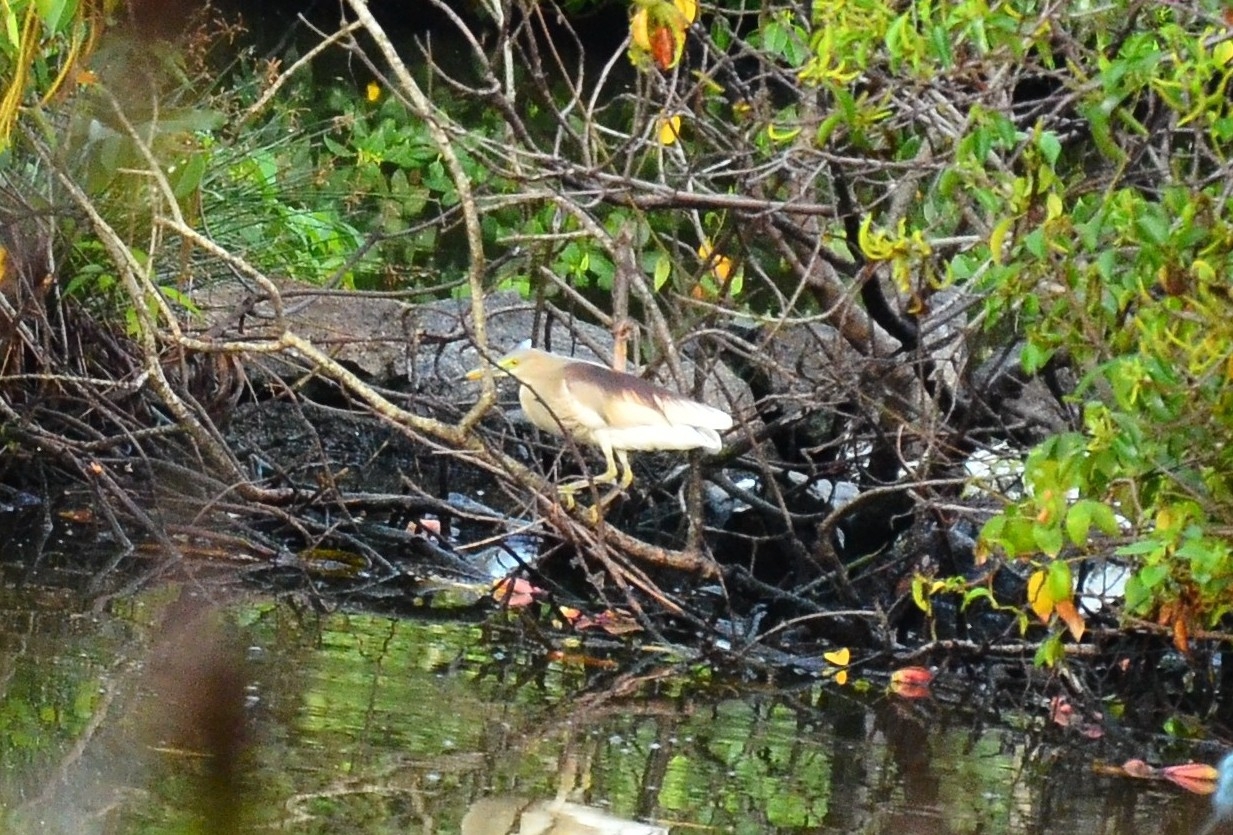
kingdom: Animalia
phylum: Chordata
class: Aves
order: Pelecaniformes
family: Ardeidae
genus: Ardeola
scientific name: Ardeola grayii
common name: Indian pond heron
